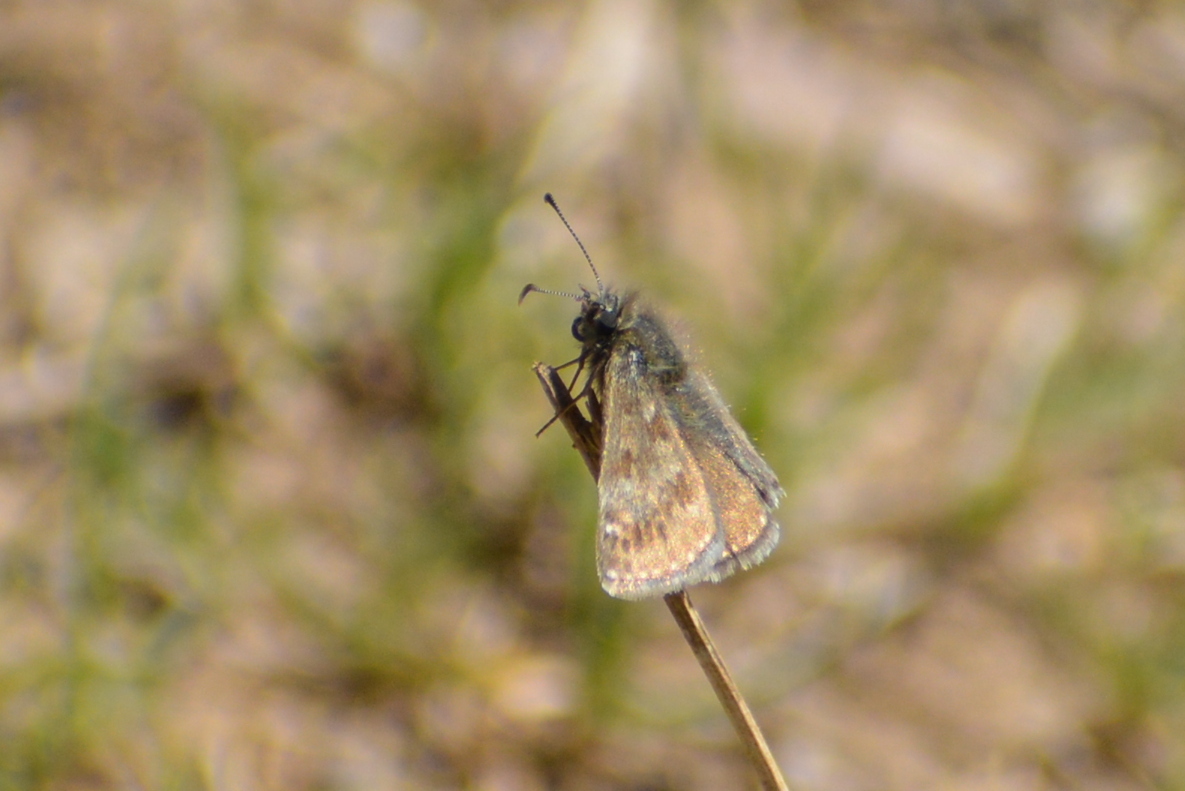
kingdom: Animalia
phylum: Arthropoda
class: Insecta
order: Lepidoptera
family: Hesperiidae
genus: Erynnis
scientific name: Erynnis tages
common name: Dingy skipper
